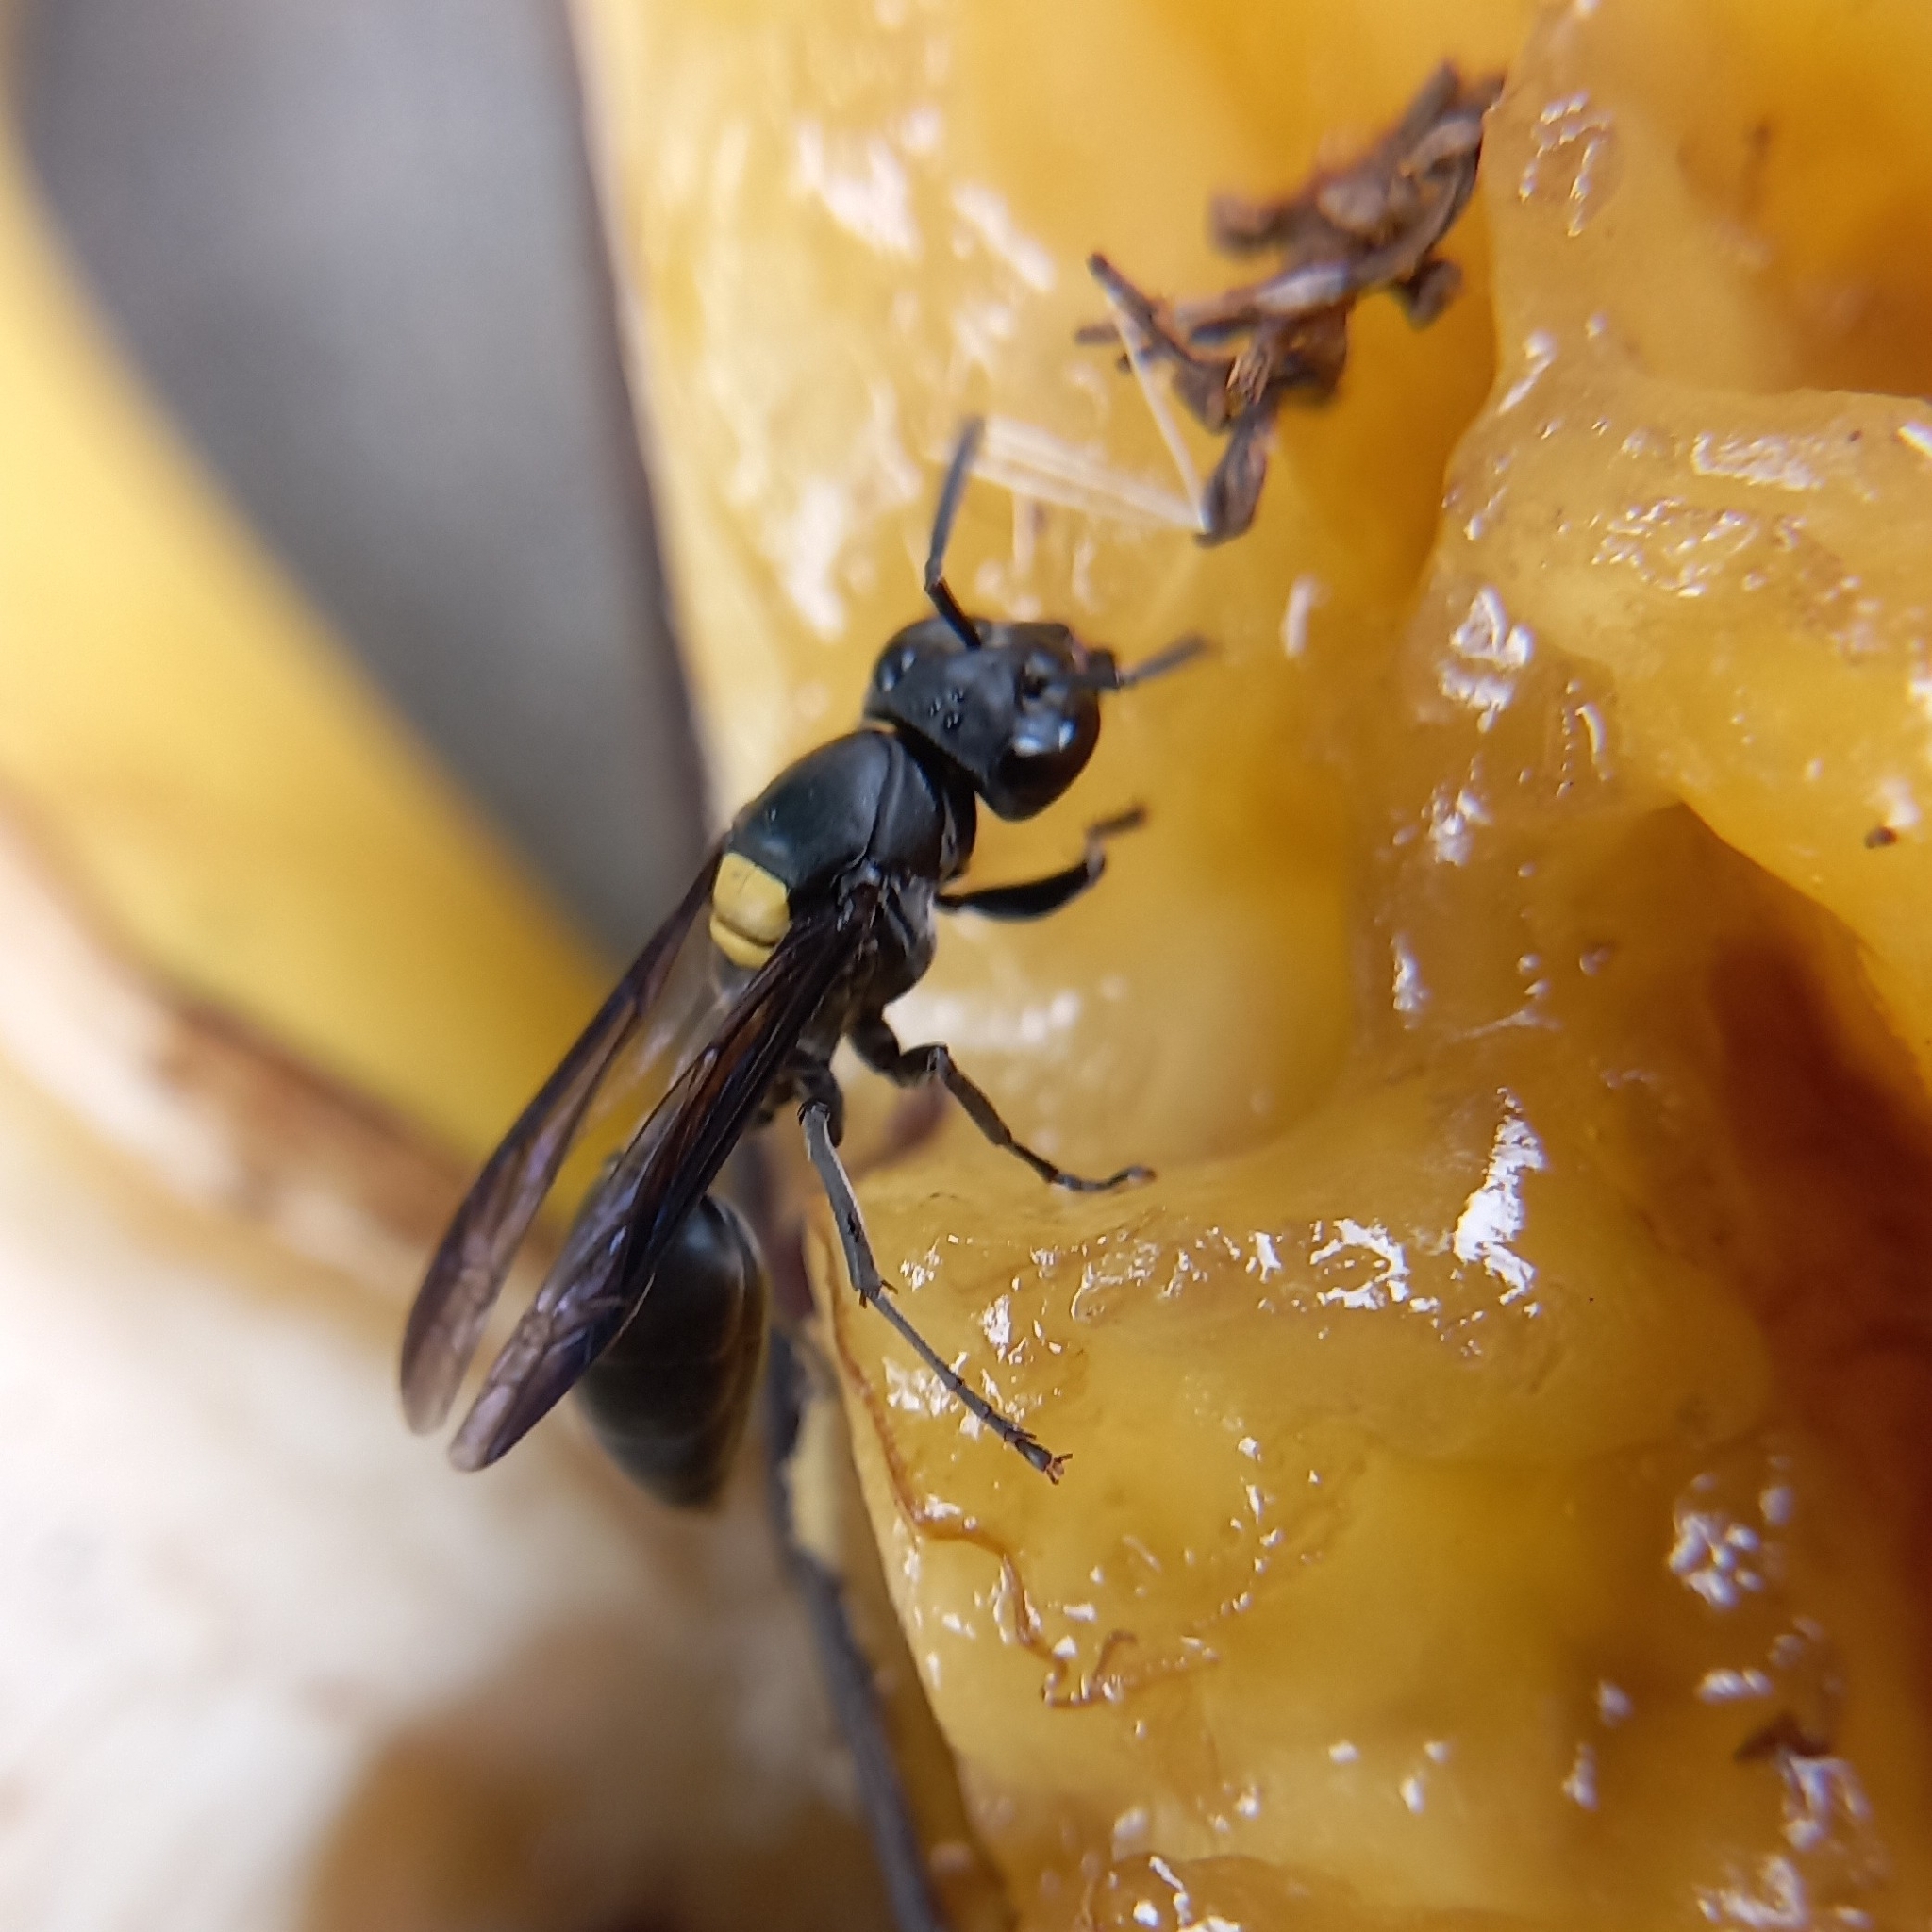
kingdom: Animalia
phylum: Arthropoda
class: Insecta
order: Hymenoptera
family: Eumenidae
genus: Polybia
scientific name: Polybia jurinei
